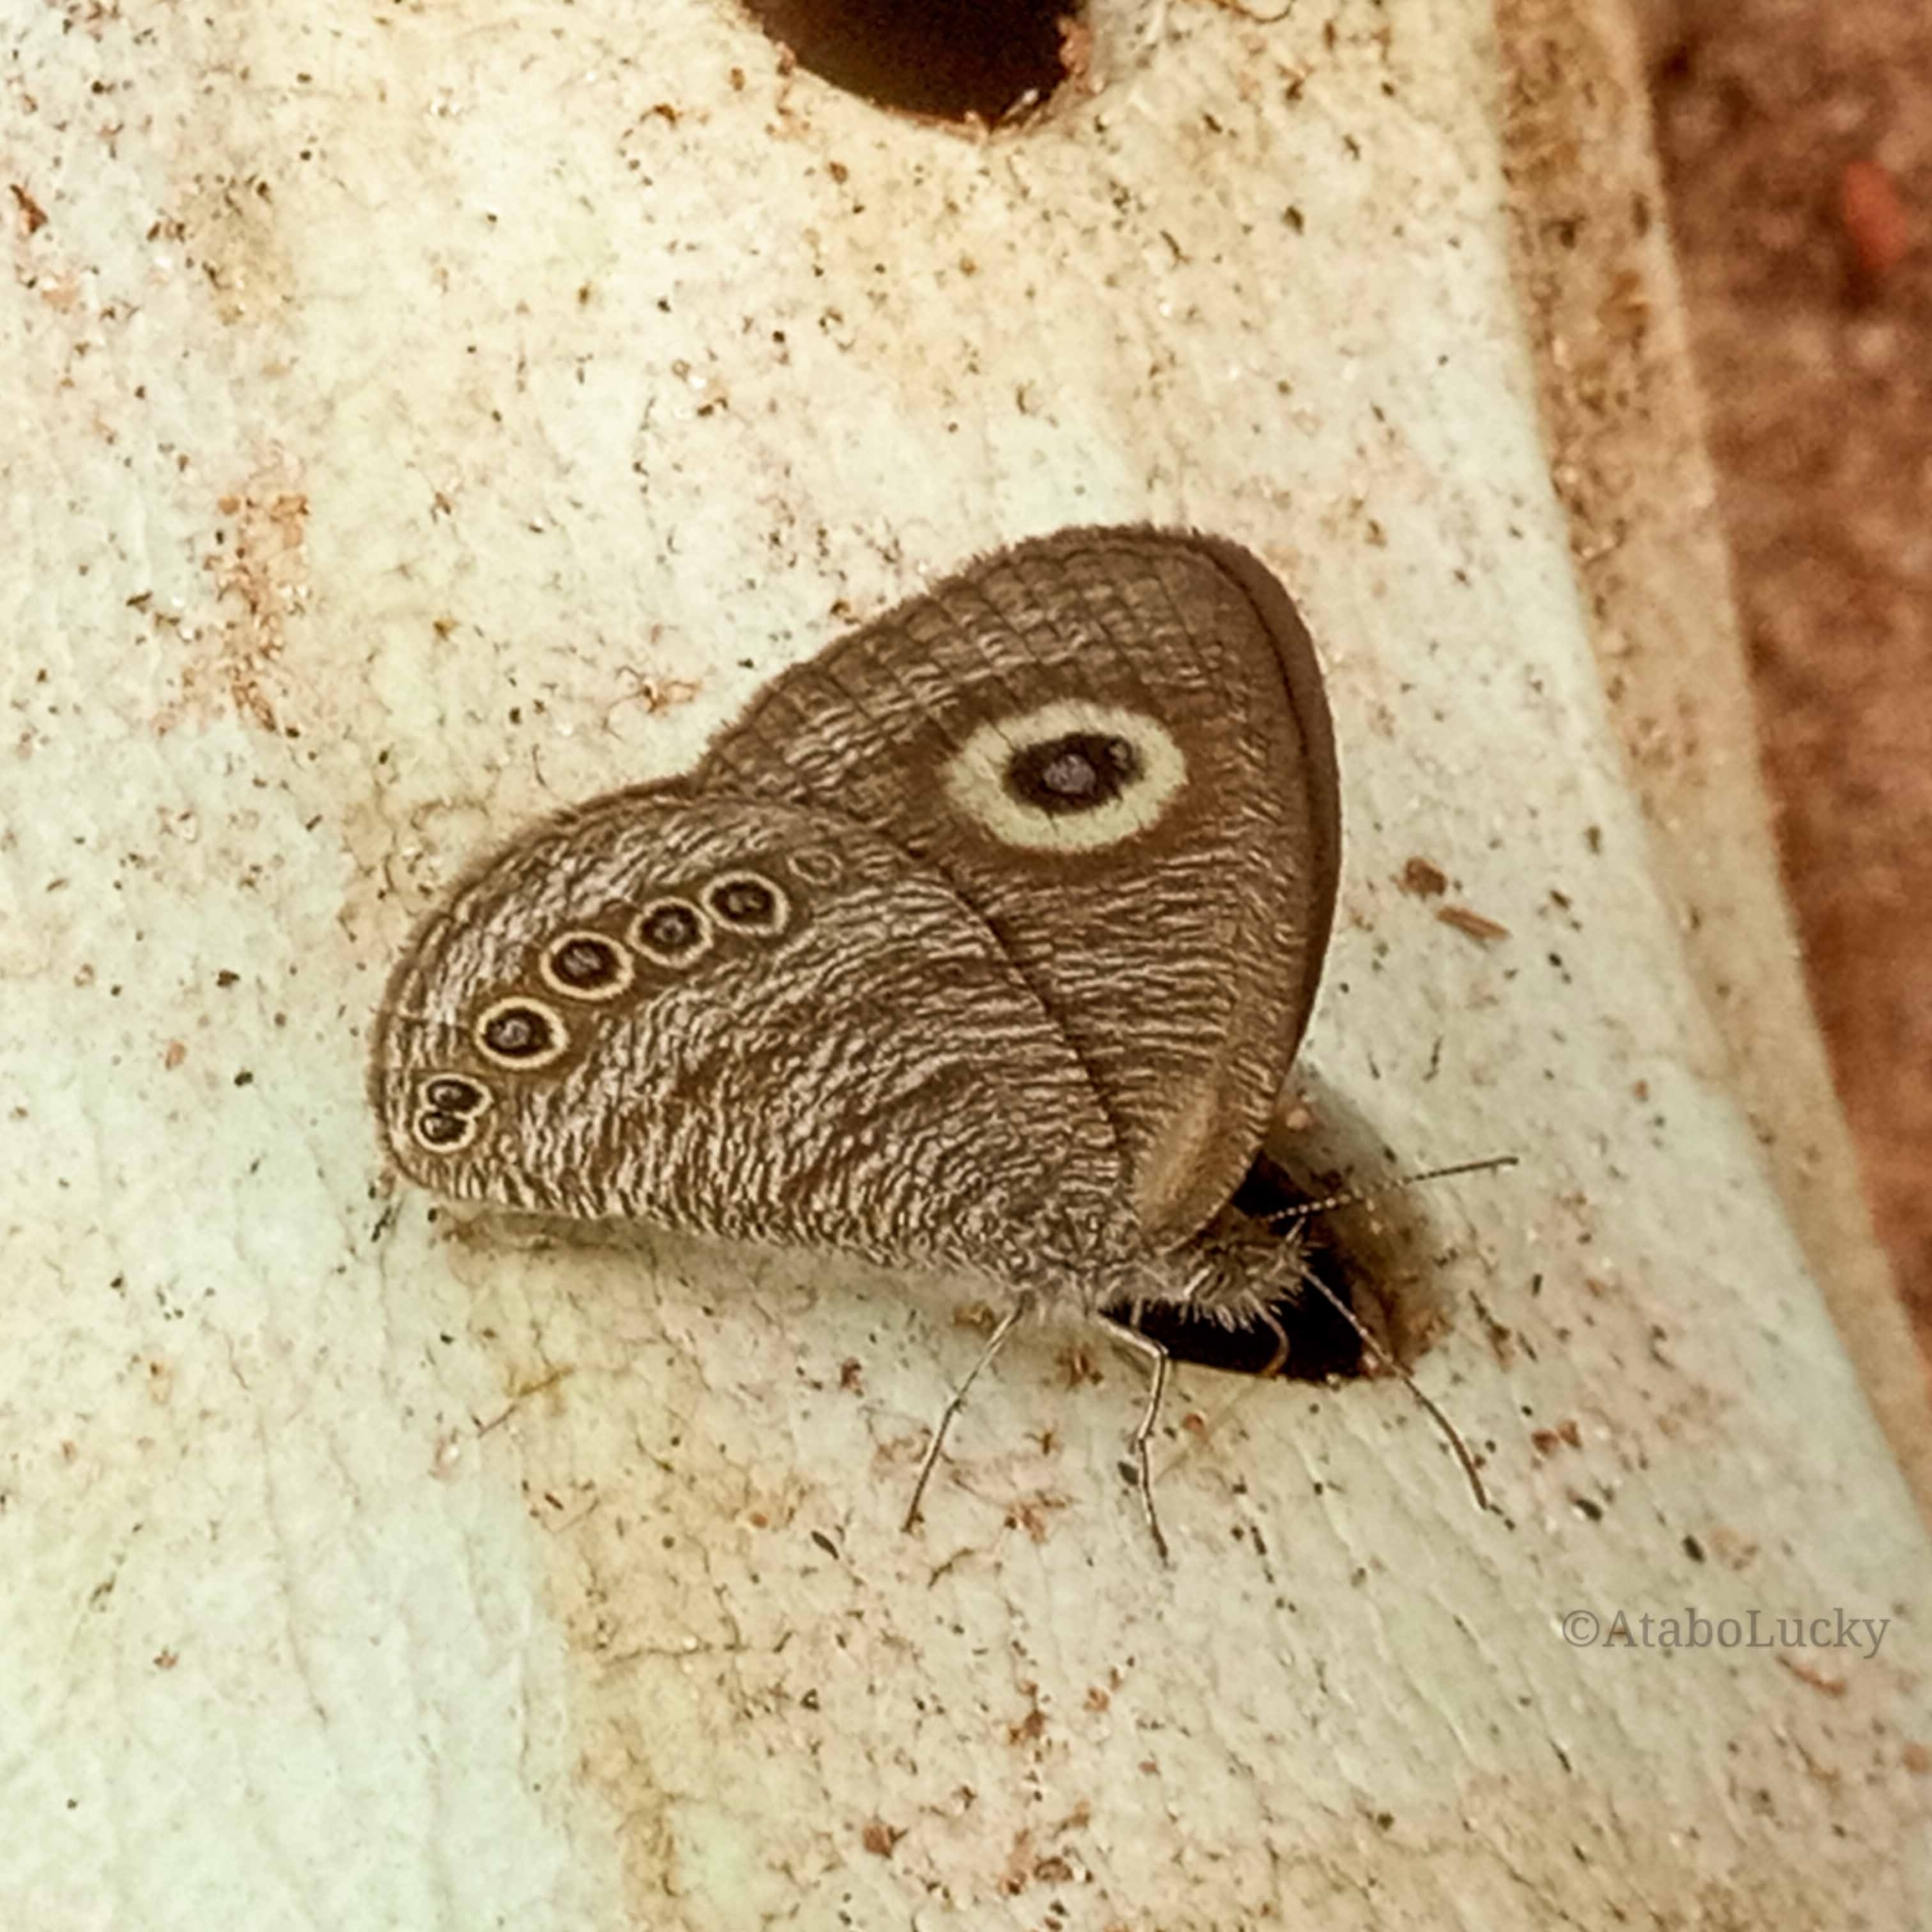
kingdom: Animalia
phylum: Arthropoda
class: Insecta
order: Lepidoptera
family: Nymphalidae
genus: Ypthimomorpha
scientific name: Ypthimomorpha itonia
